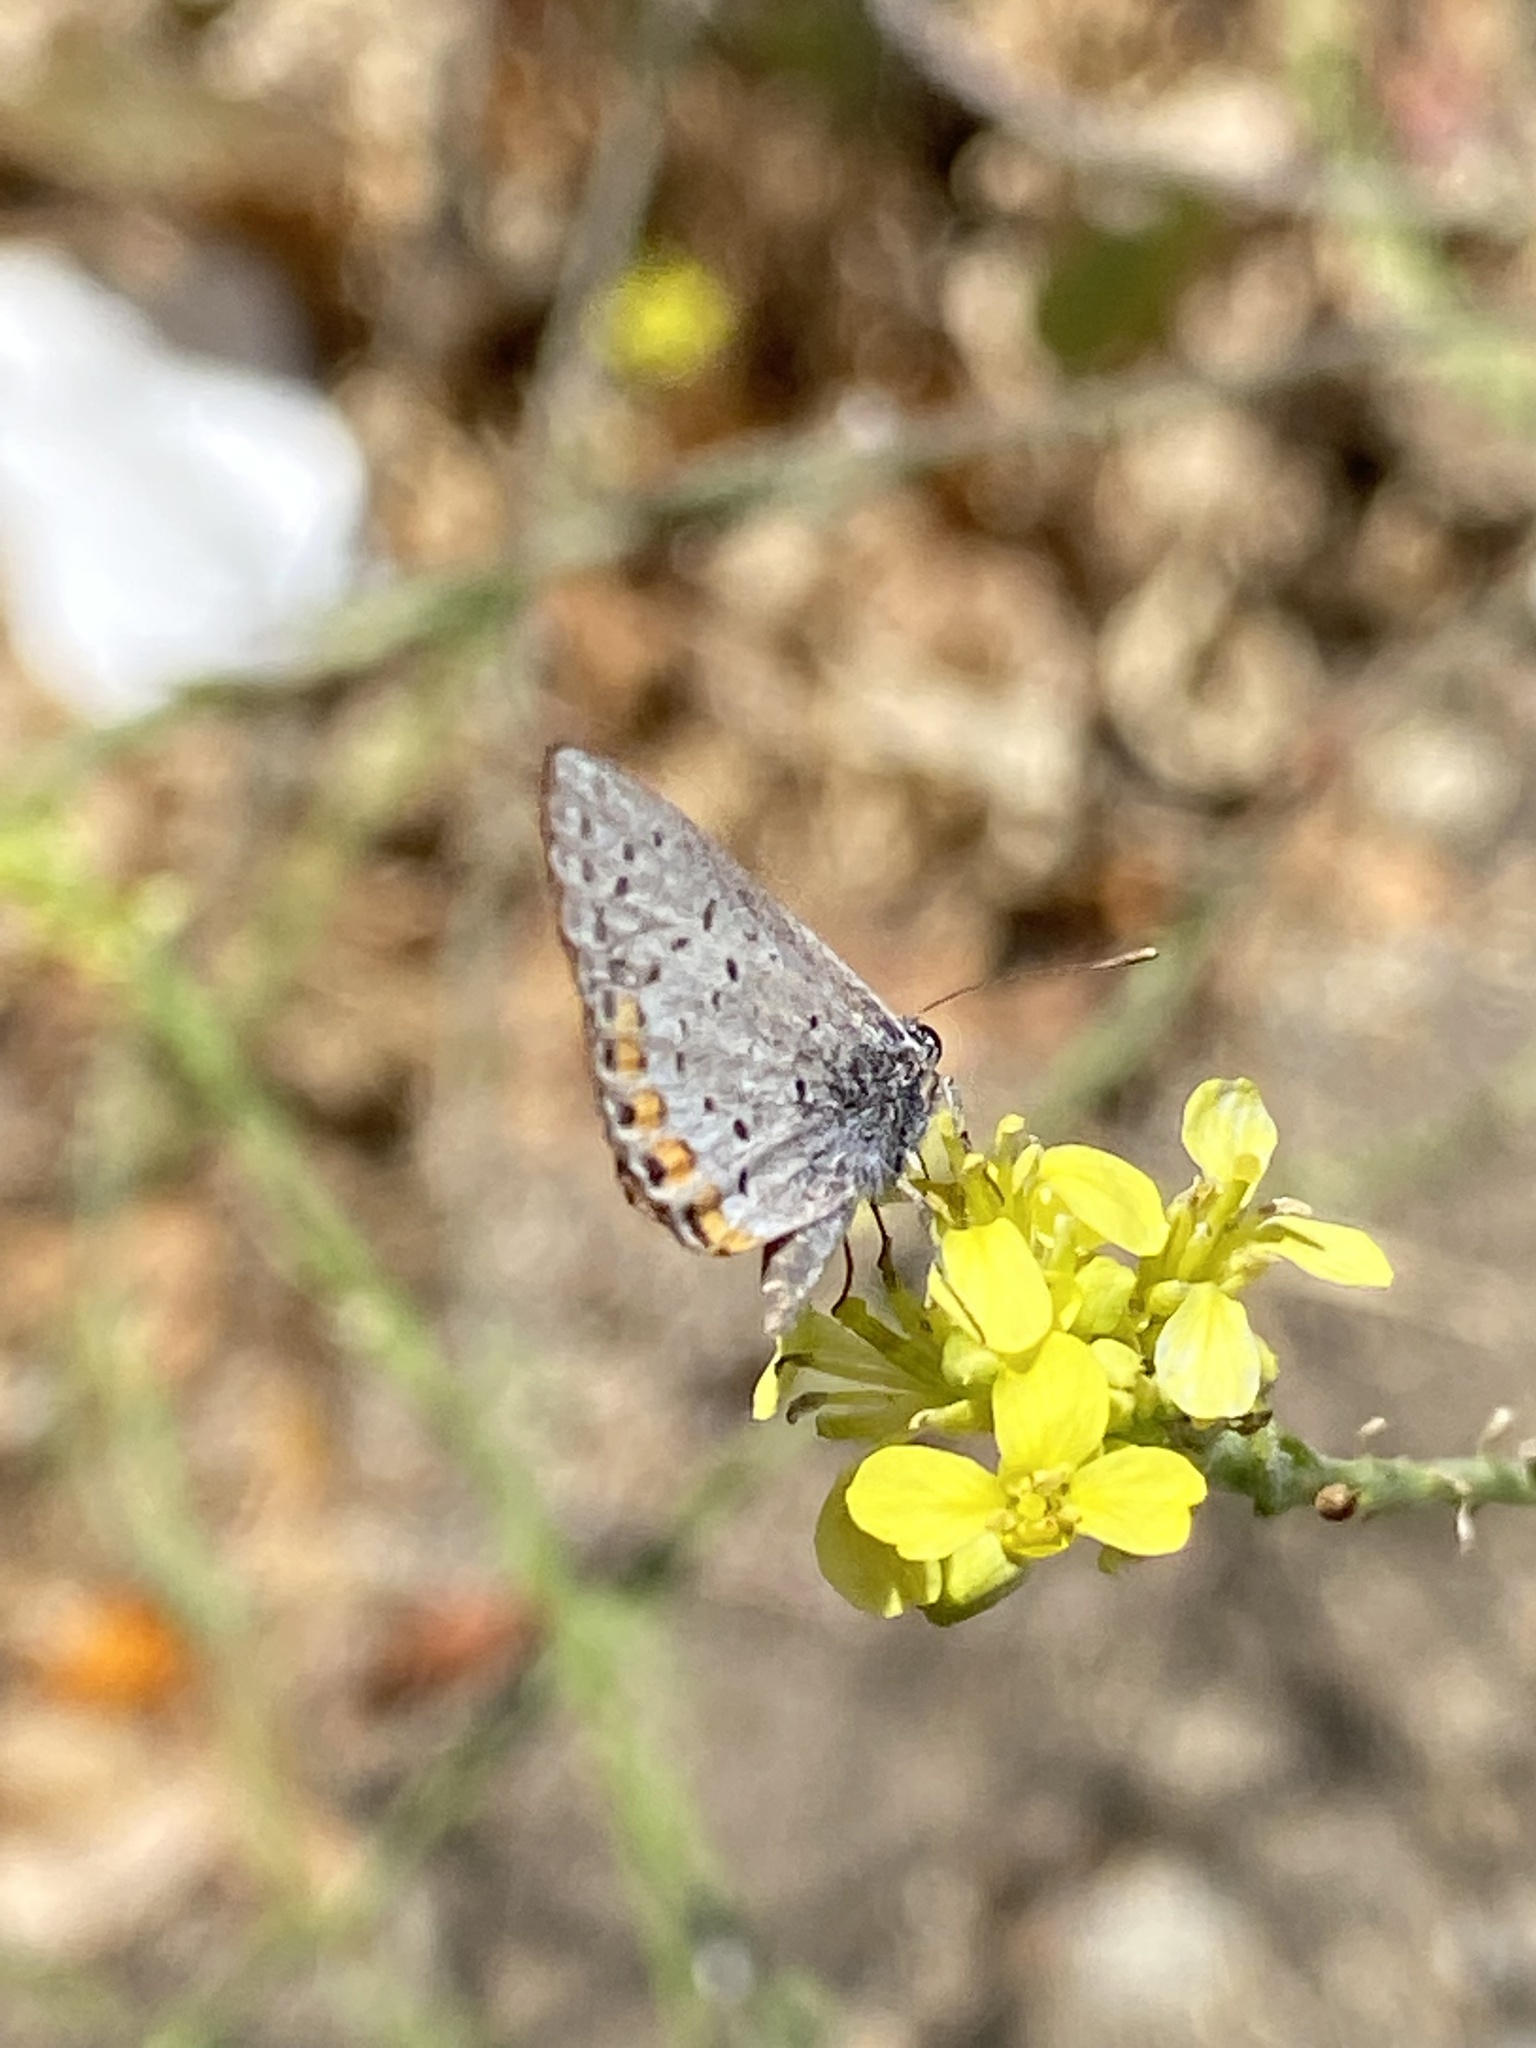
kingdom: Animalia
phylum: Arthropoda
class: Insecta
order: Lepidoptera
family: Lycaenidae
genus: Icaricia
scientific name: Icaricia acmon
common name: Acmon blue
